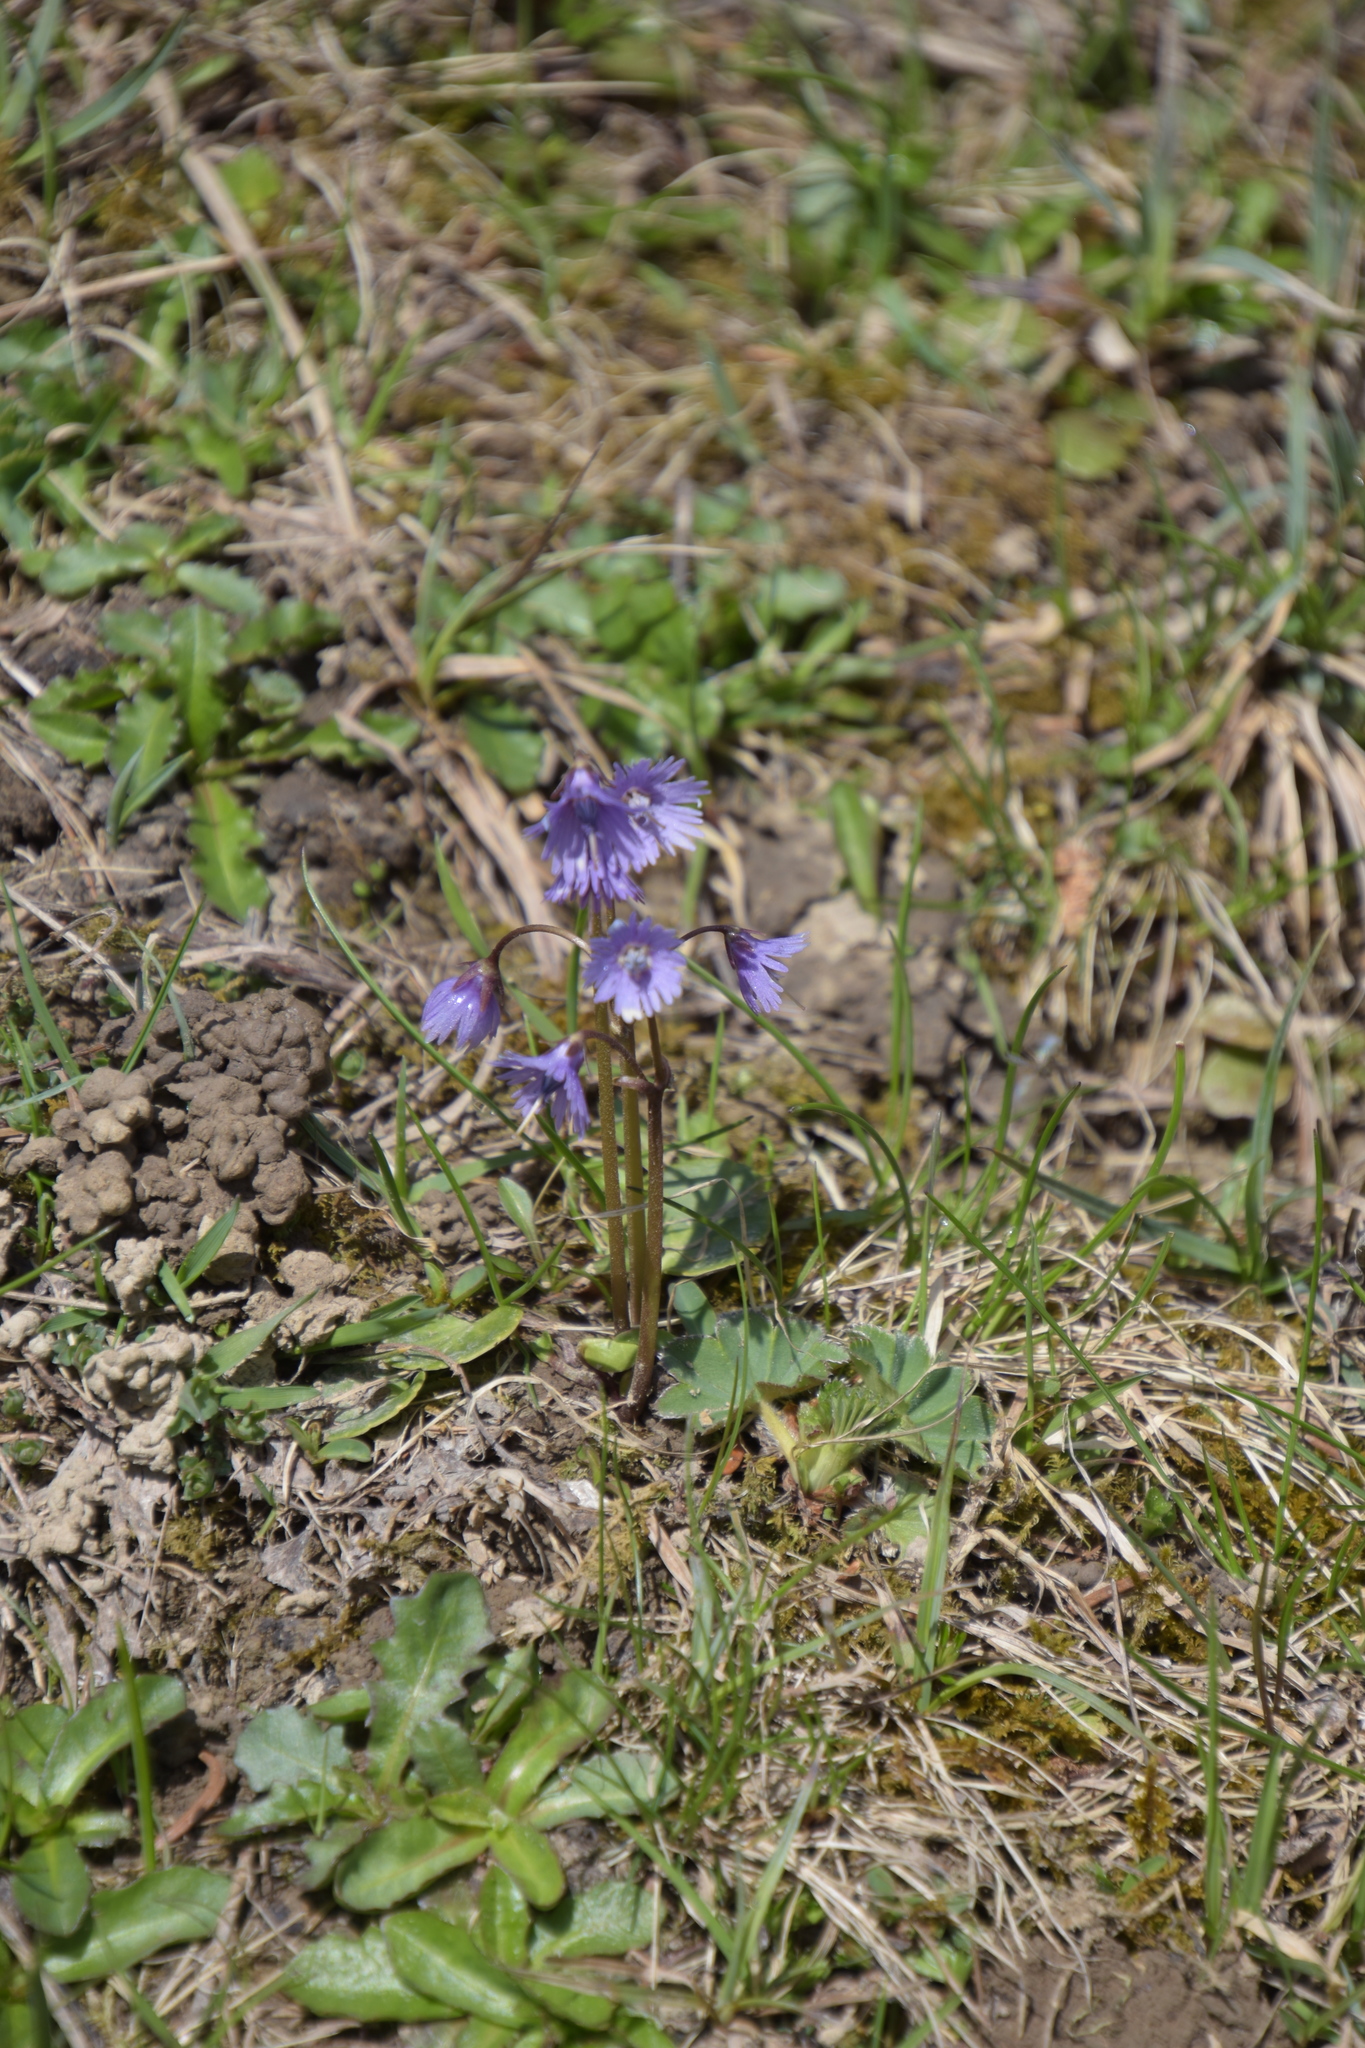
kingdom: Plantae
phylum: Tracheophyta
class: Magnoliopsida
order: Ericales
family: Primulaceae
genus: Soldanella
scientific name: Soldanella alpina
